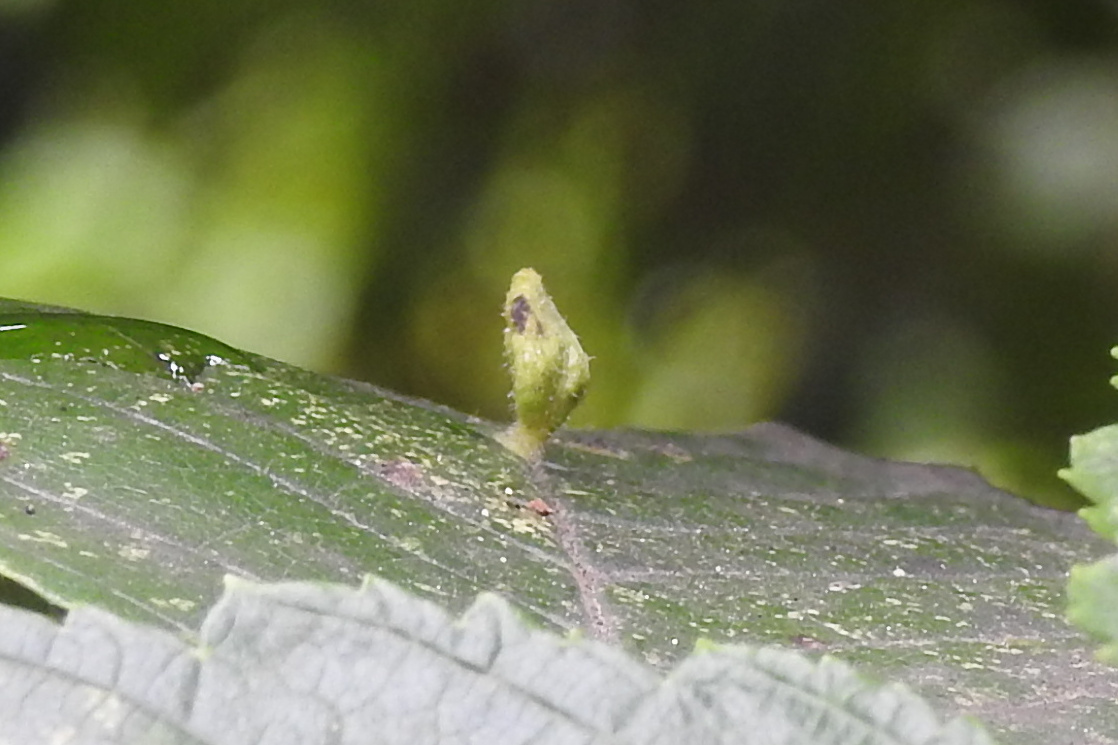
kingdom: Animalia
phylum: Arthropoda
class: Arachnida
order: Trombidiformes
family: Eriophyidae
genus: Aceria
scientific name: Aceria
